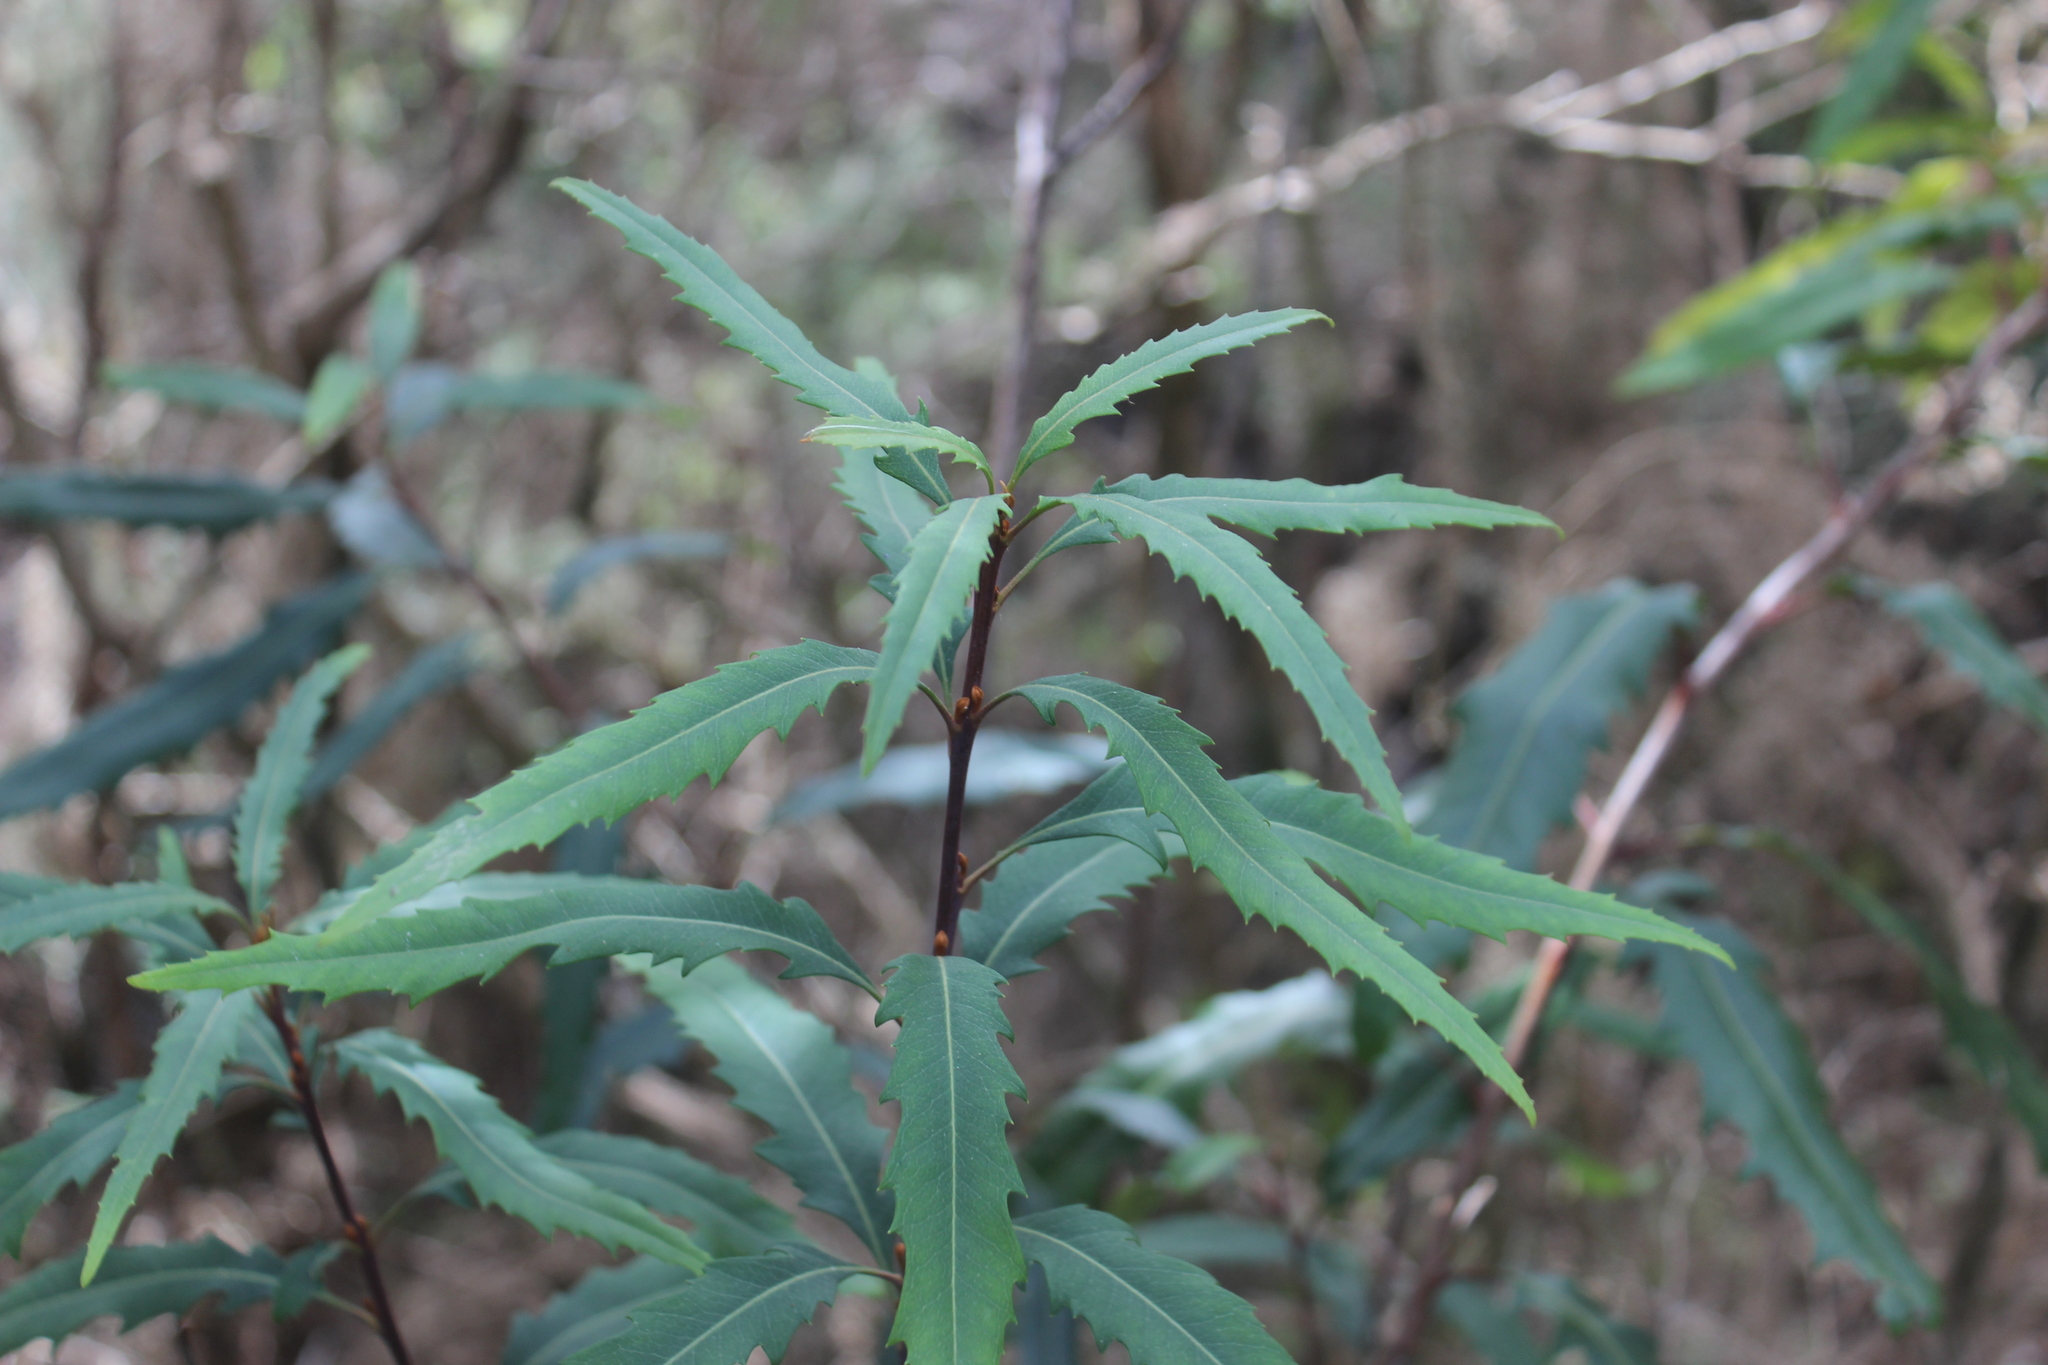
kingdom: Plantae
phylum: Tracheophyta
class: Magnoliopsida
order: Proteales
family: Proteaceae
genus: Lomatia
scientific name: Lomatia fraseri
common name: Forest lomatia
